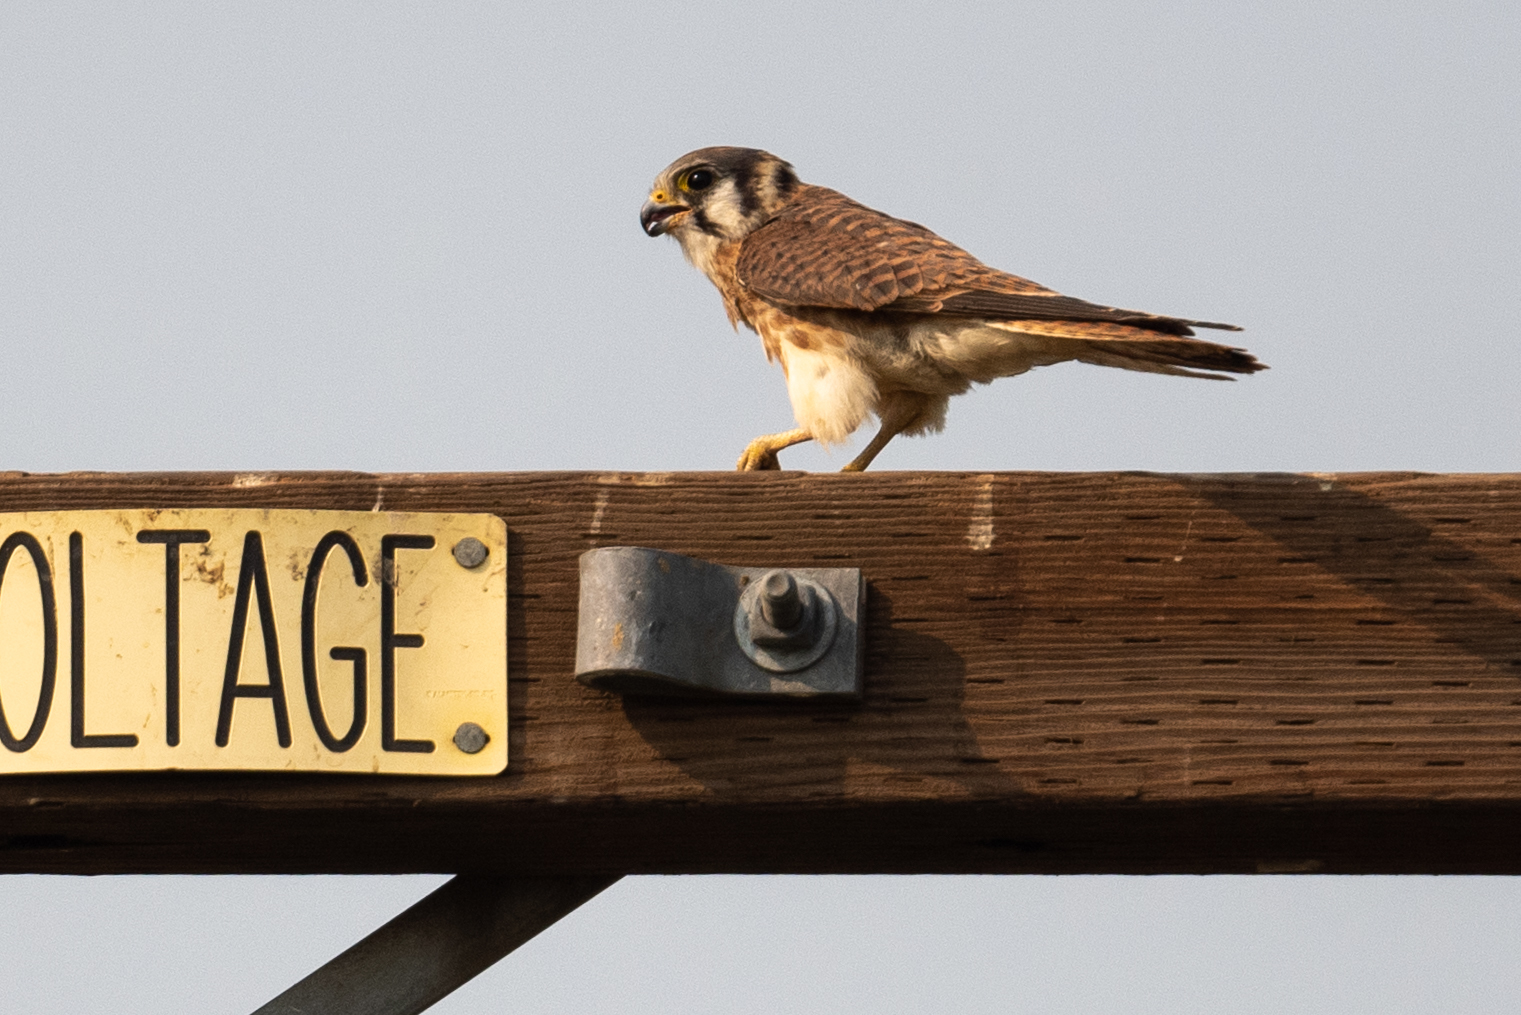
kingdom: Animalia
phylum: Chordata
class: Aves
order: Falconiformes
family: Falconidae
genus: Falco
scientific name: Falco sparverius
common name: American kestrel
